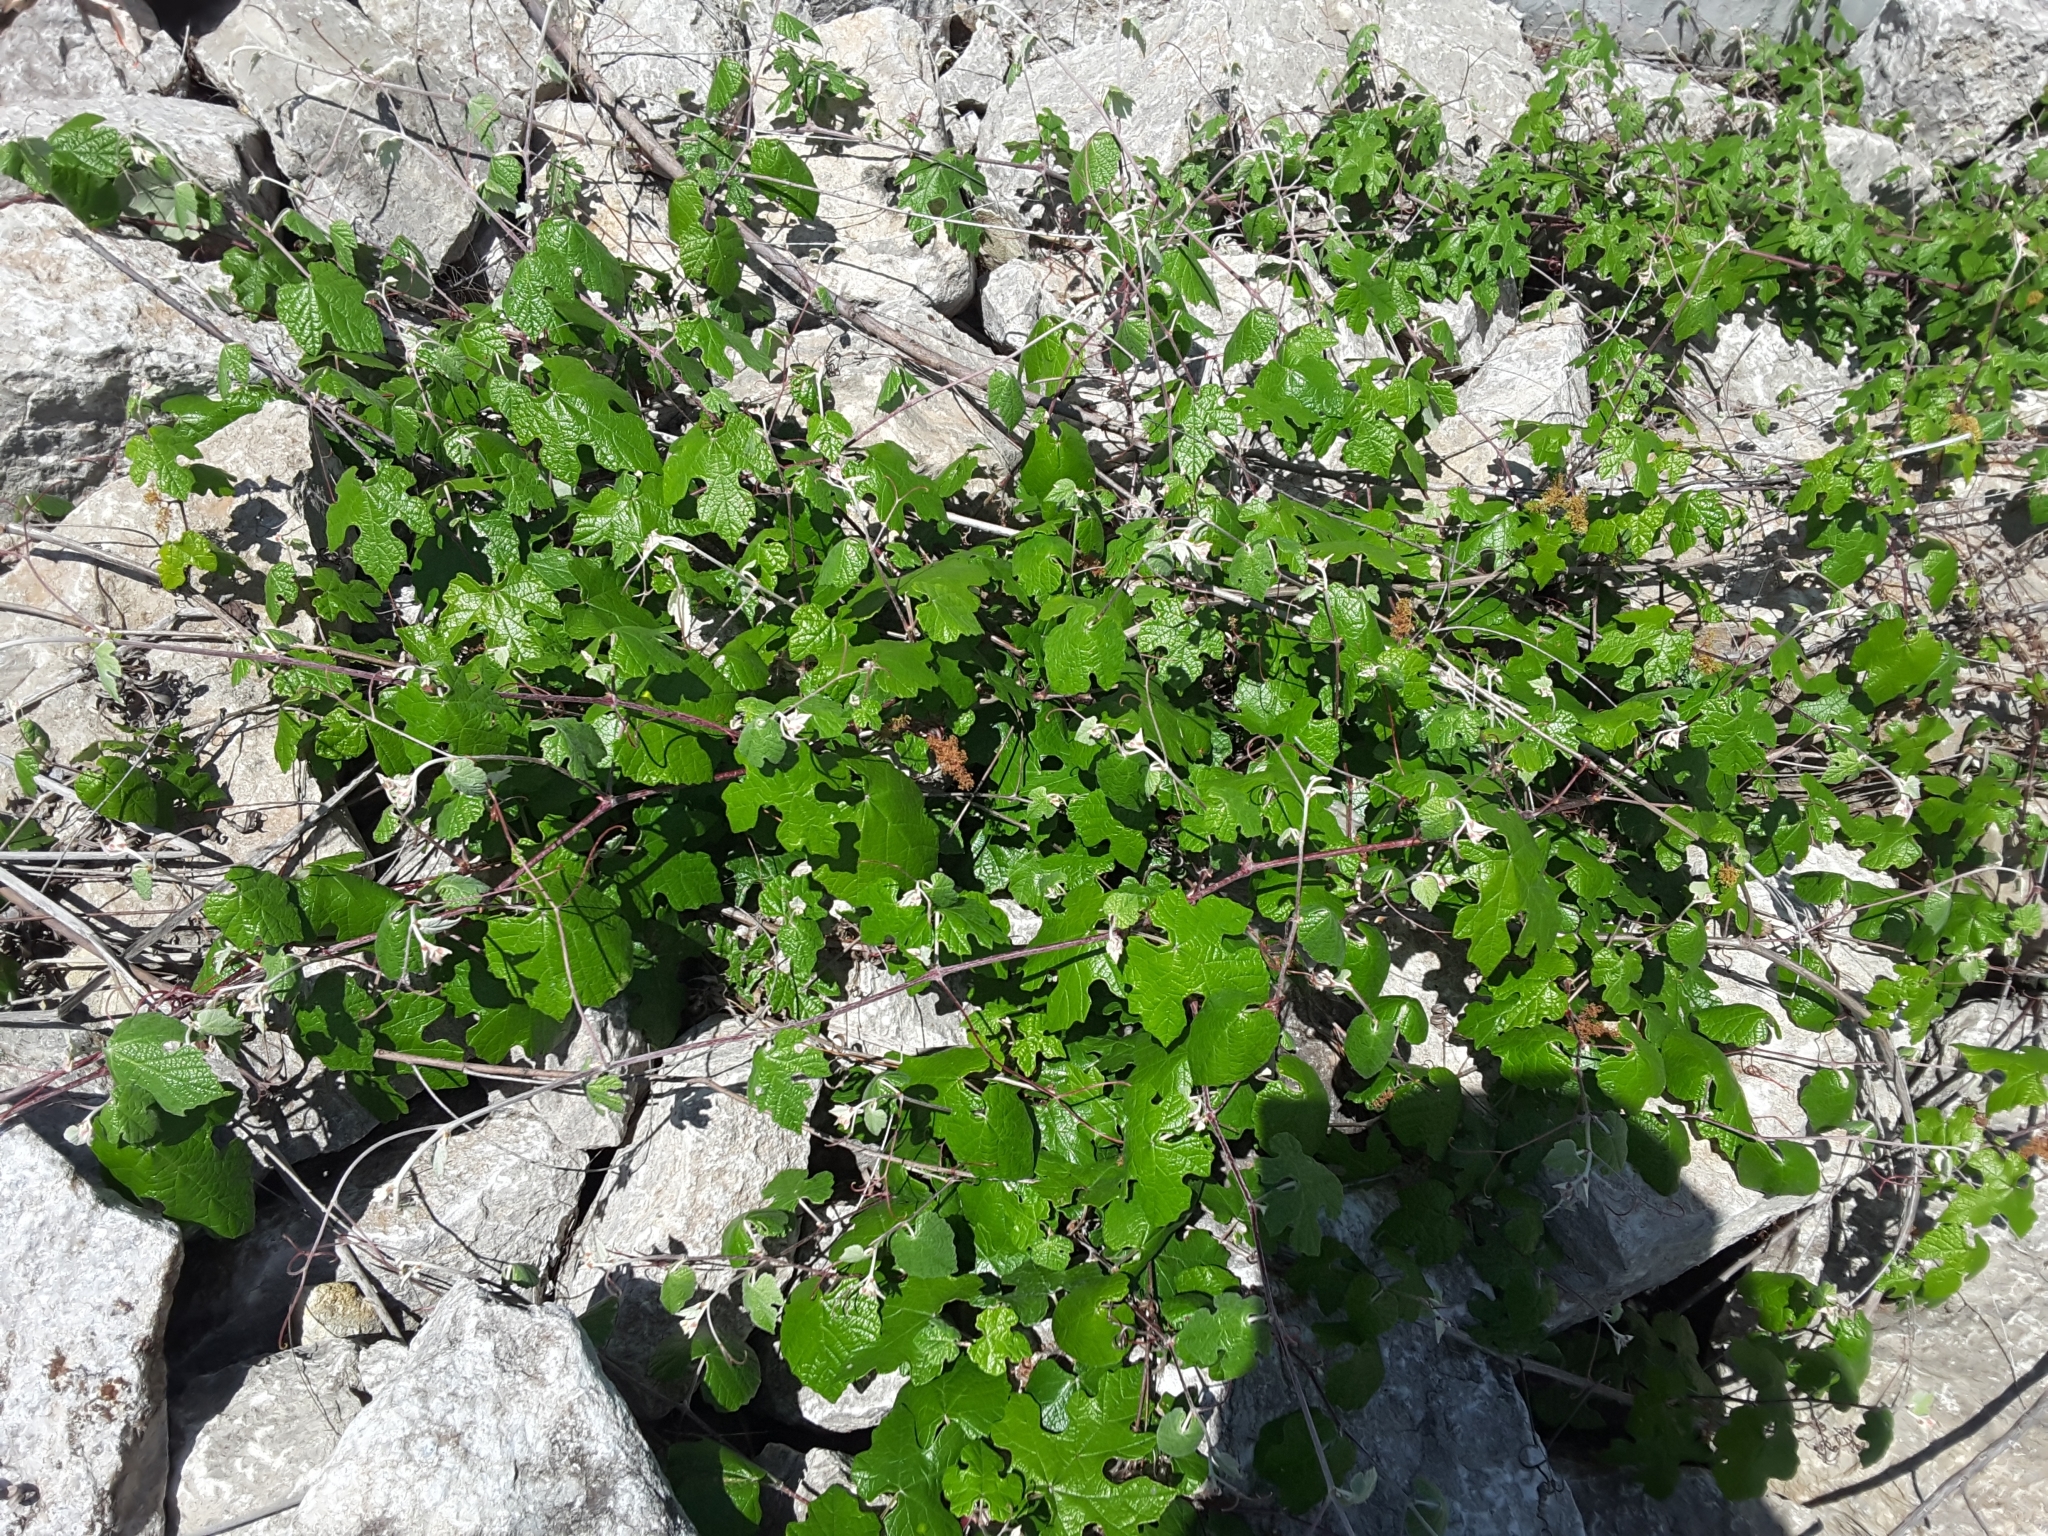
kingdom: Plantae
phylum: Tracheophyta
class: Magnoliopsida
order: Vitales
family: Vitaceae
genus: Vitis
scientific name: Vitis mustangensis
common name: Mustang grape
